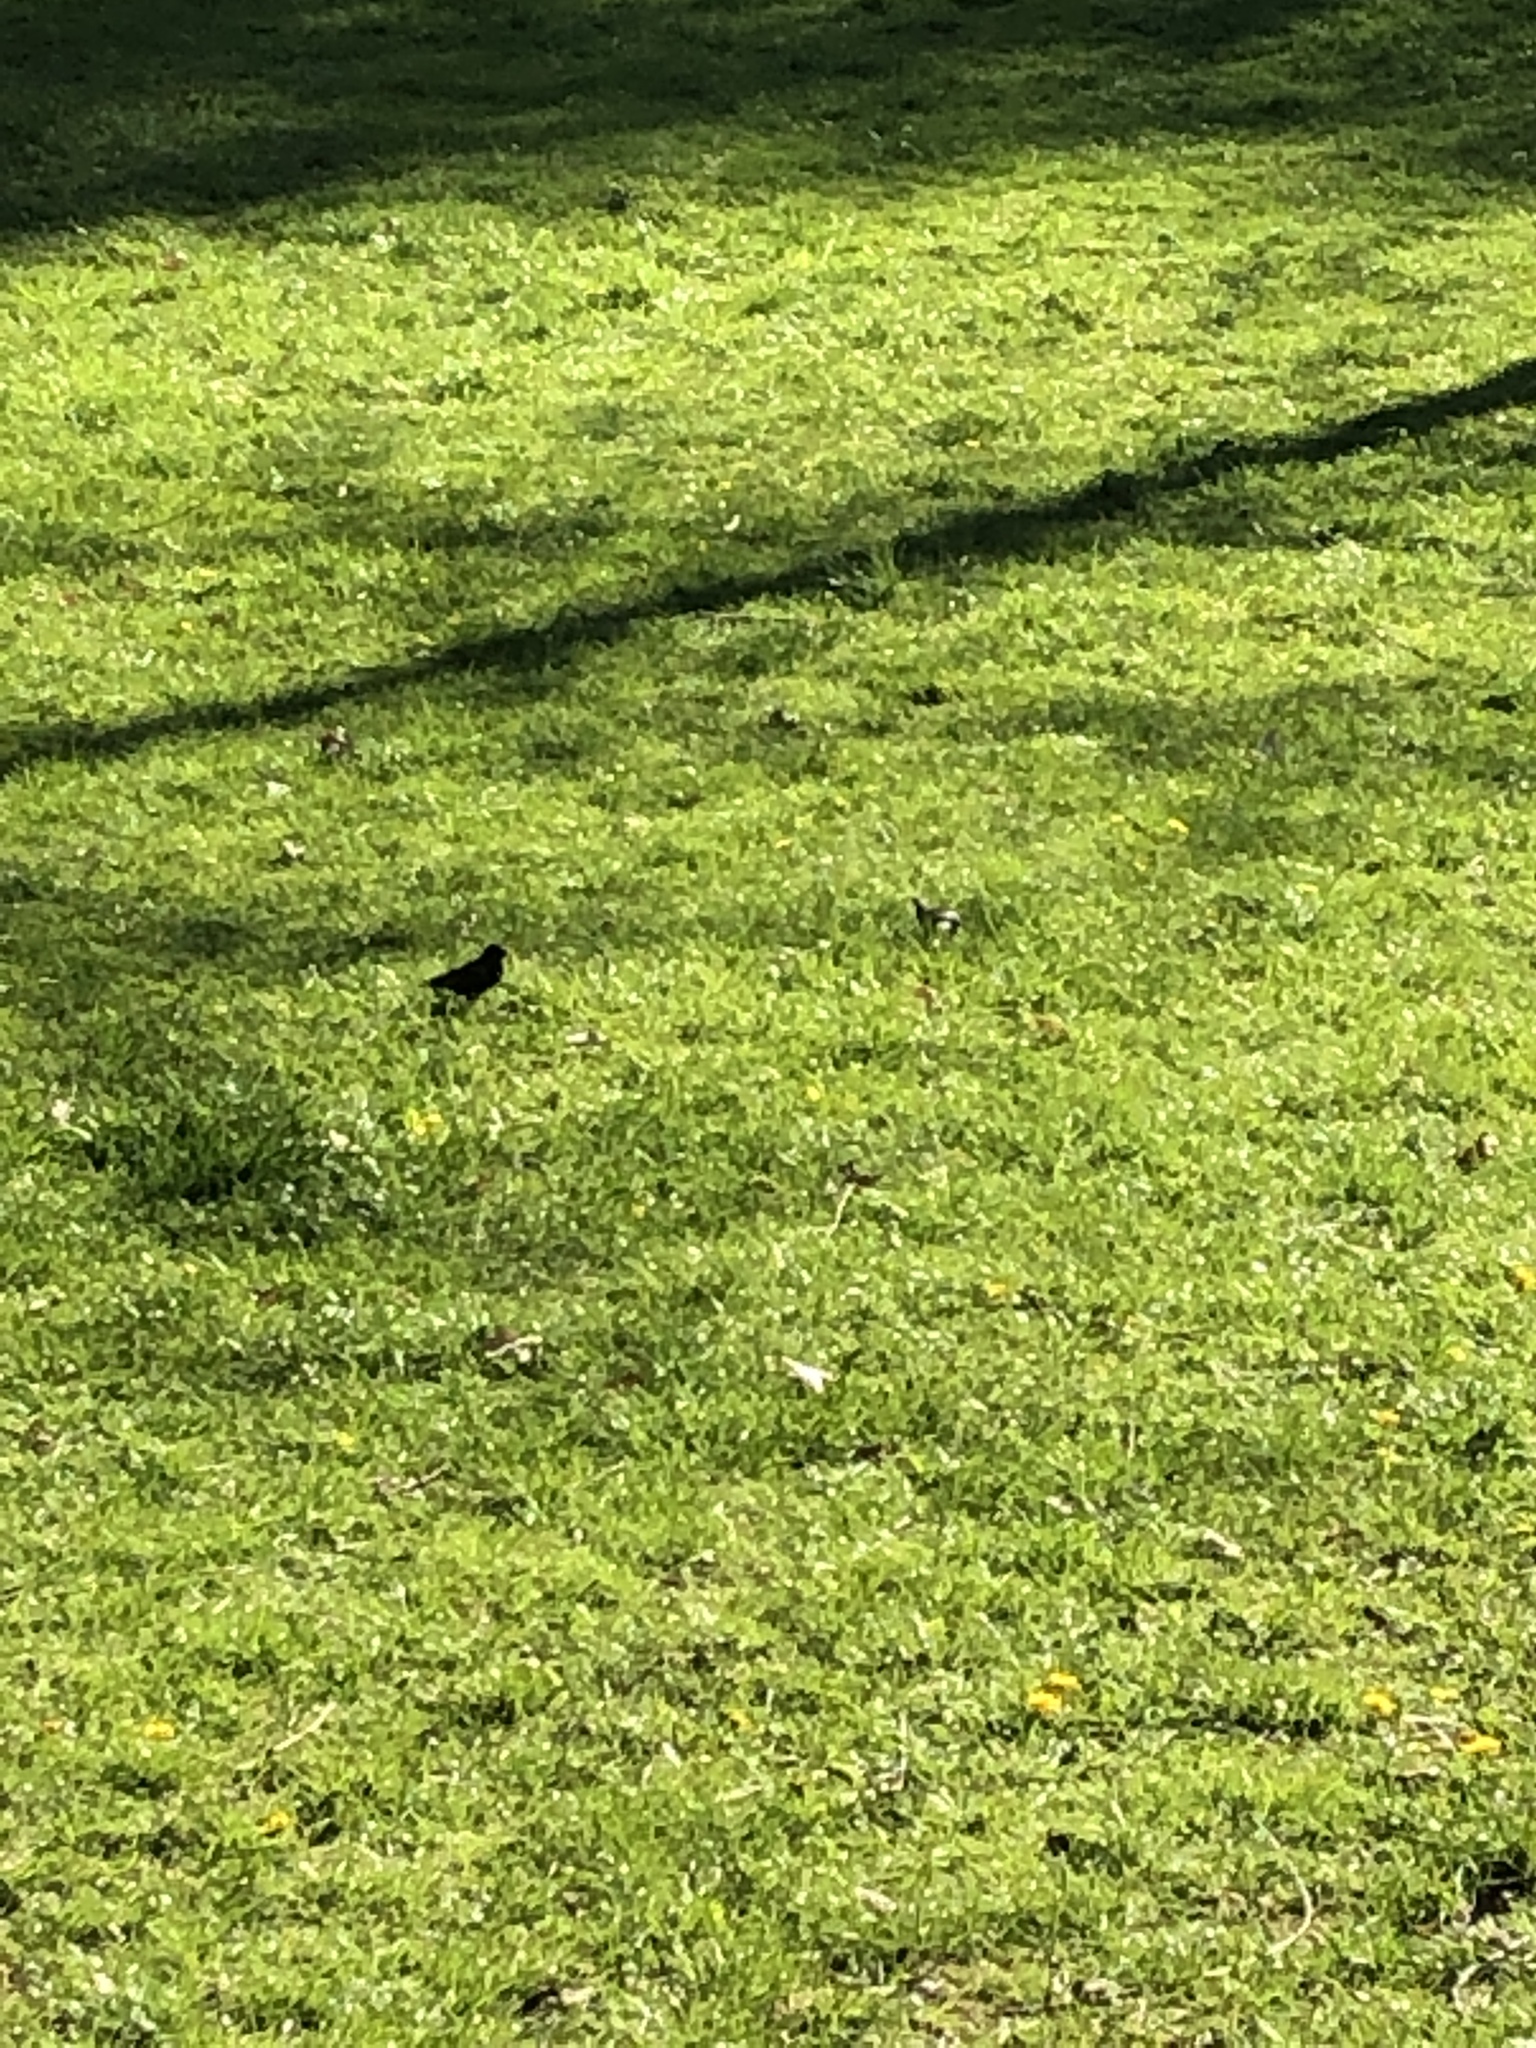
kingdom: Animalia
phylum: Chordata
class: Aves
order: Passeriformes
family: Sturnidae
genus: Sturnus
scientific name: Sturnus vulgaris
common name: Common starling
